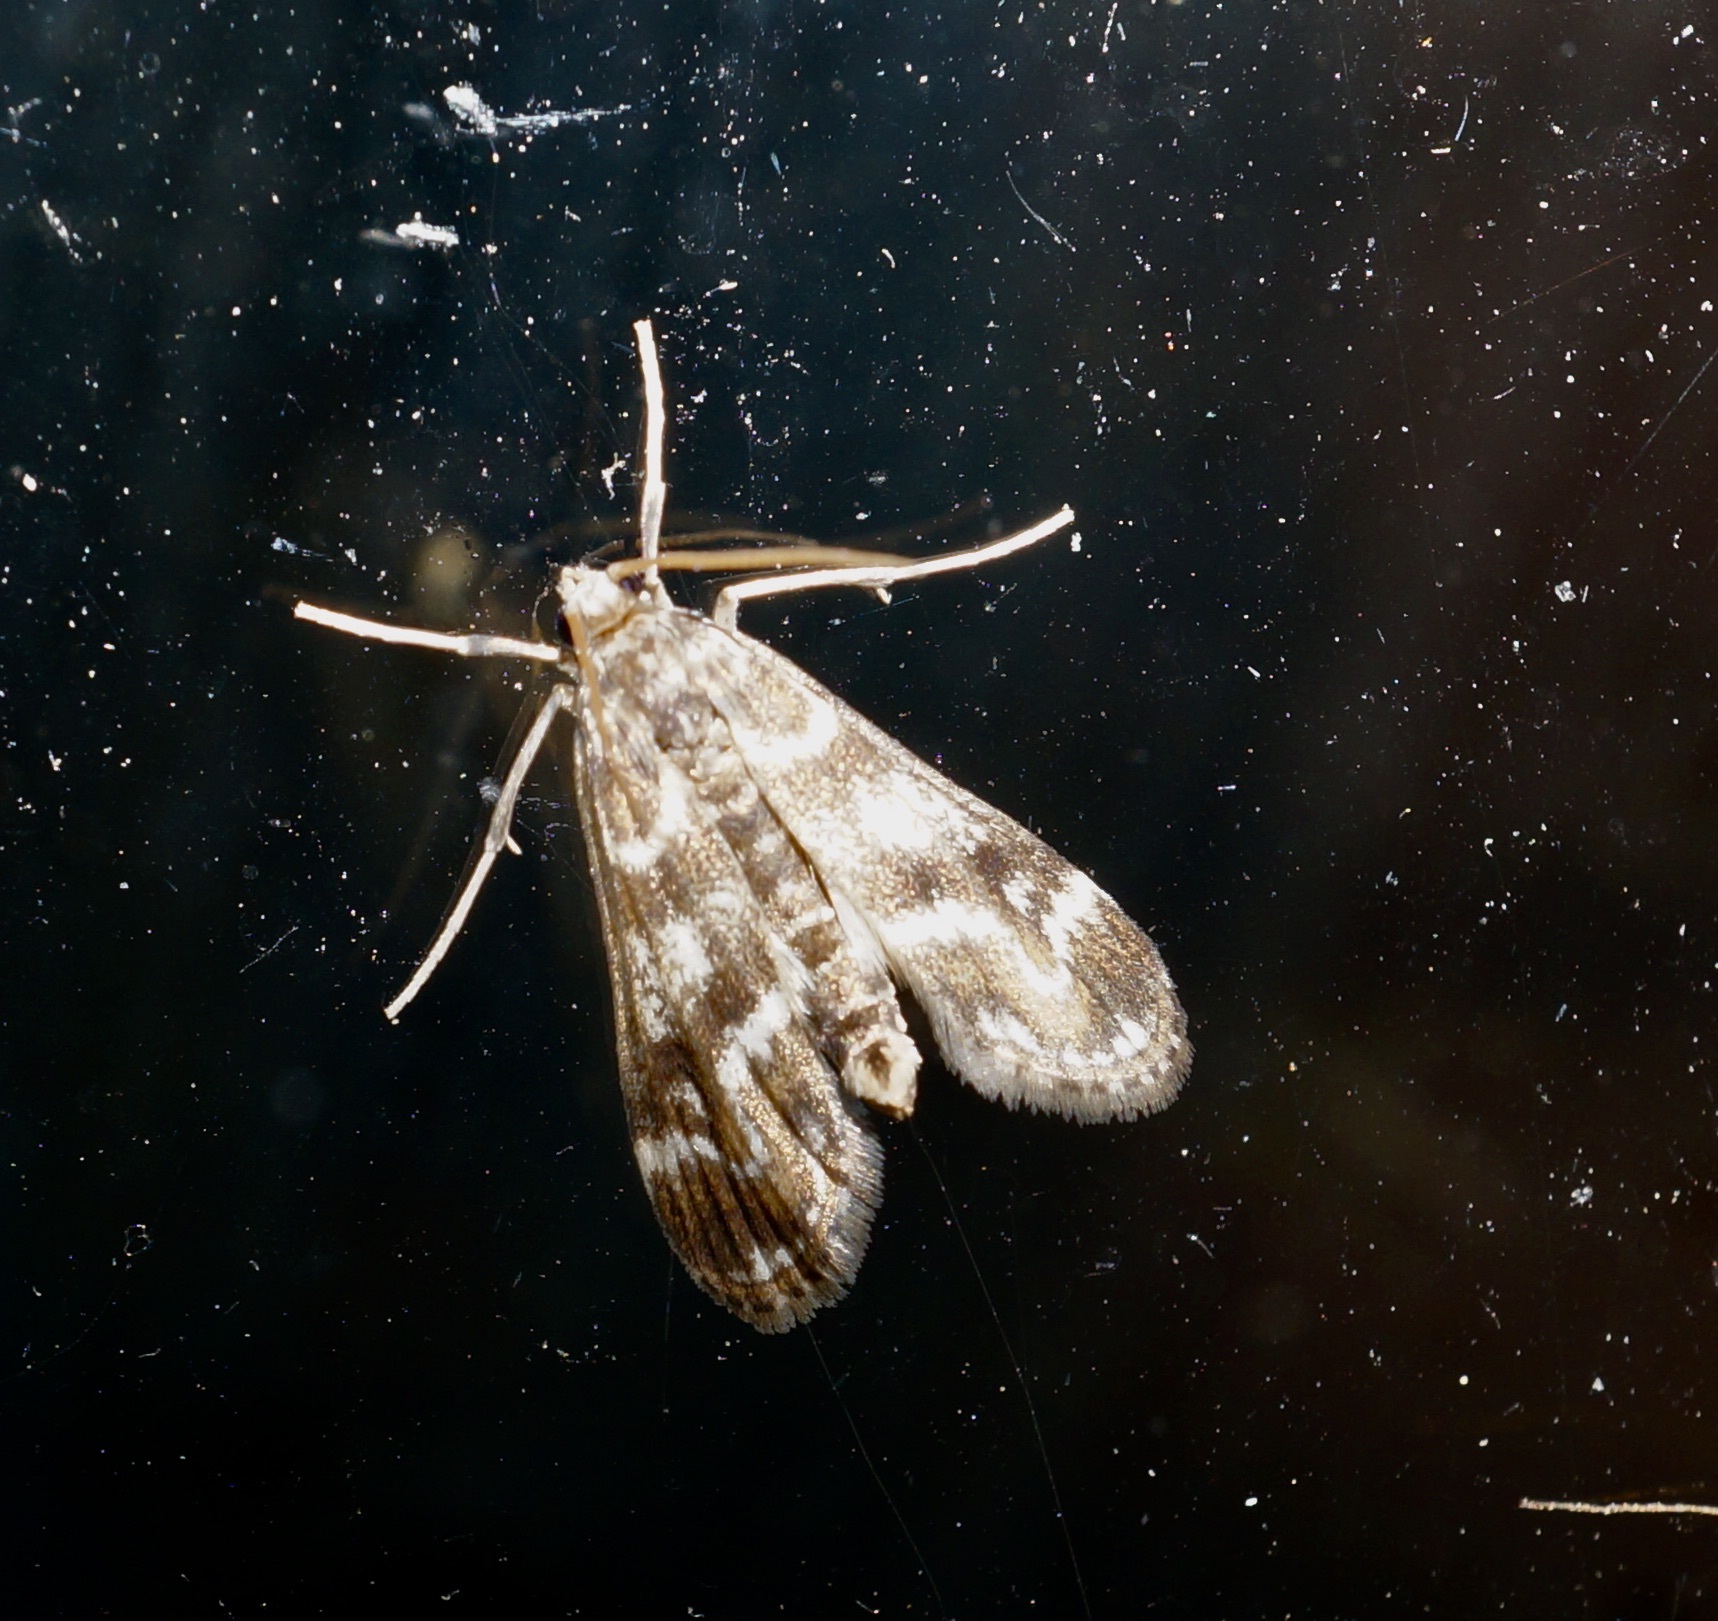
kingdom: Animalia
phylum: Arthropoda
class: Insecta
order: Lepidoptera
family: Crambidae
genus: Hygraula
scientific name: Hygraula nitens
